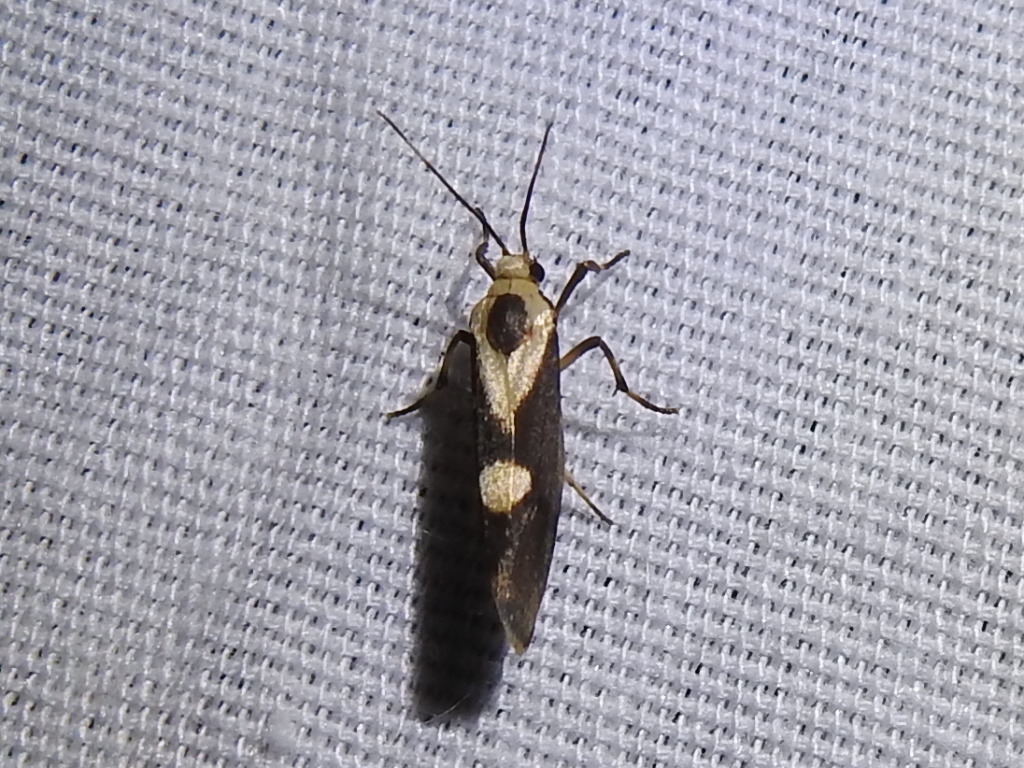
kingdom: Animalia
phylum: Arthropoda
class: Insecta
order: Lepidoptera
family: Erebidae
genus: Cisthene
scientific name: Cisthene subrufa
